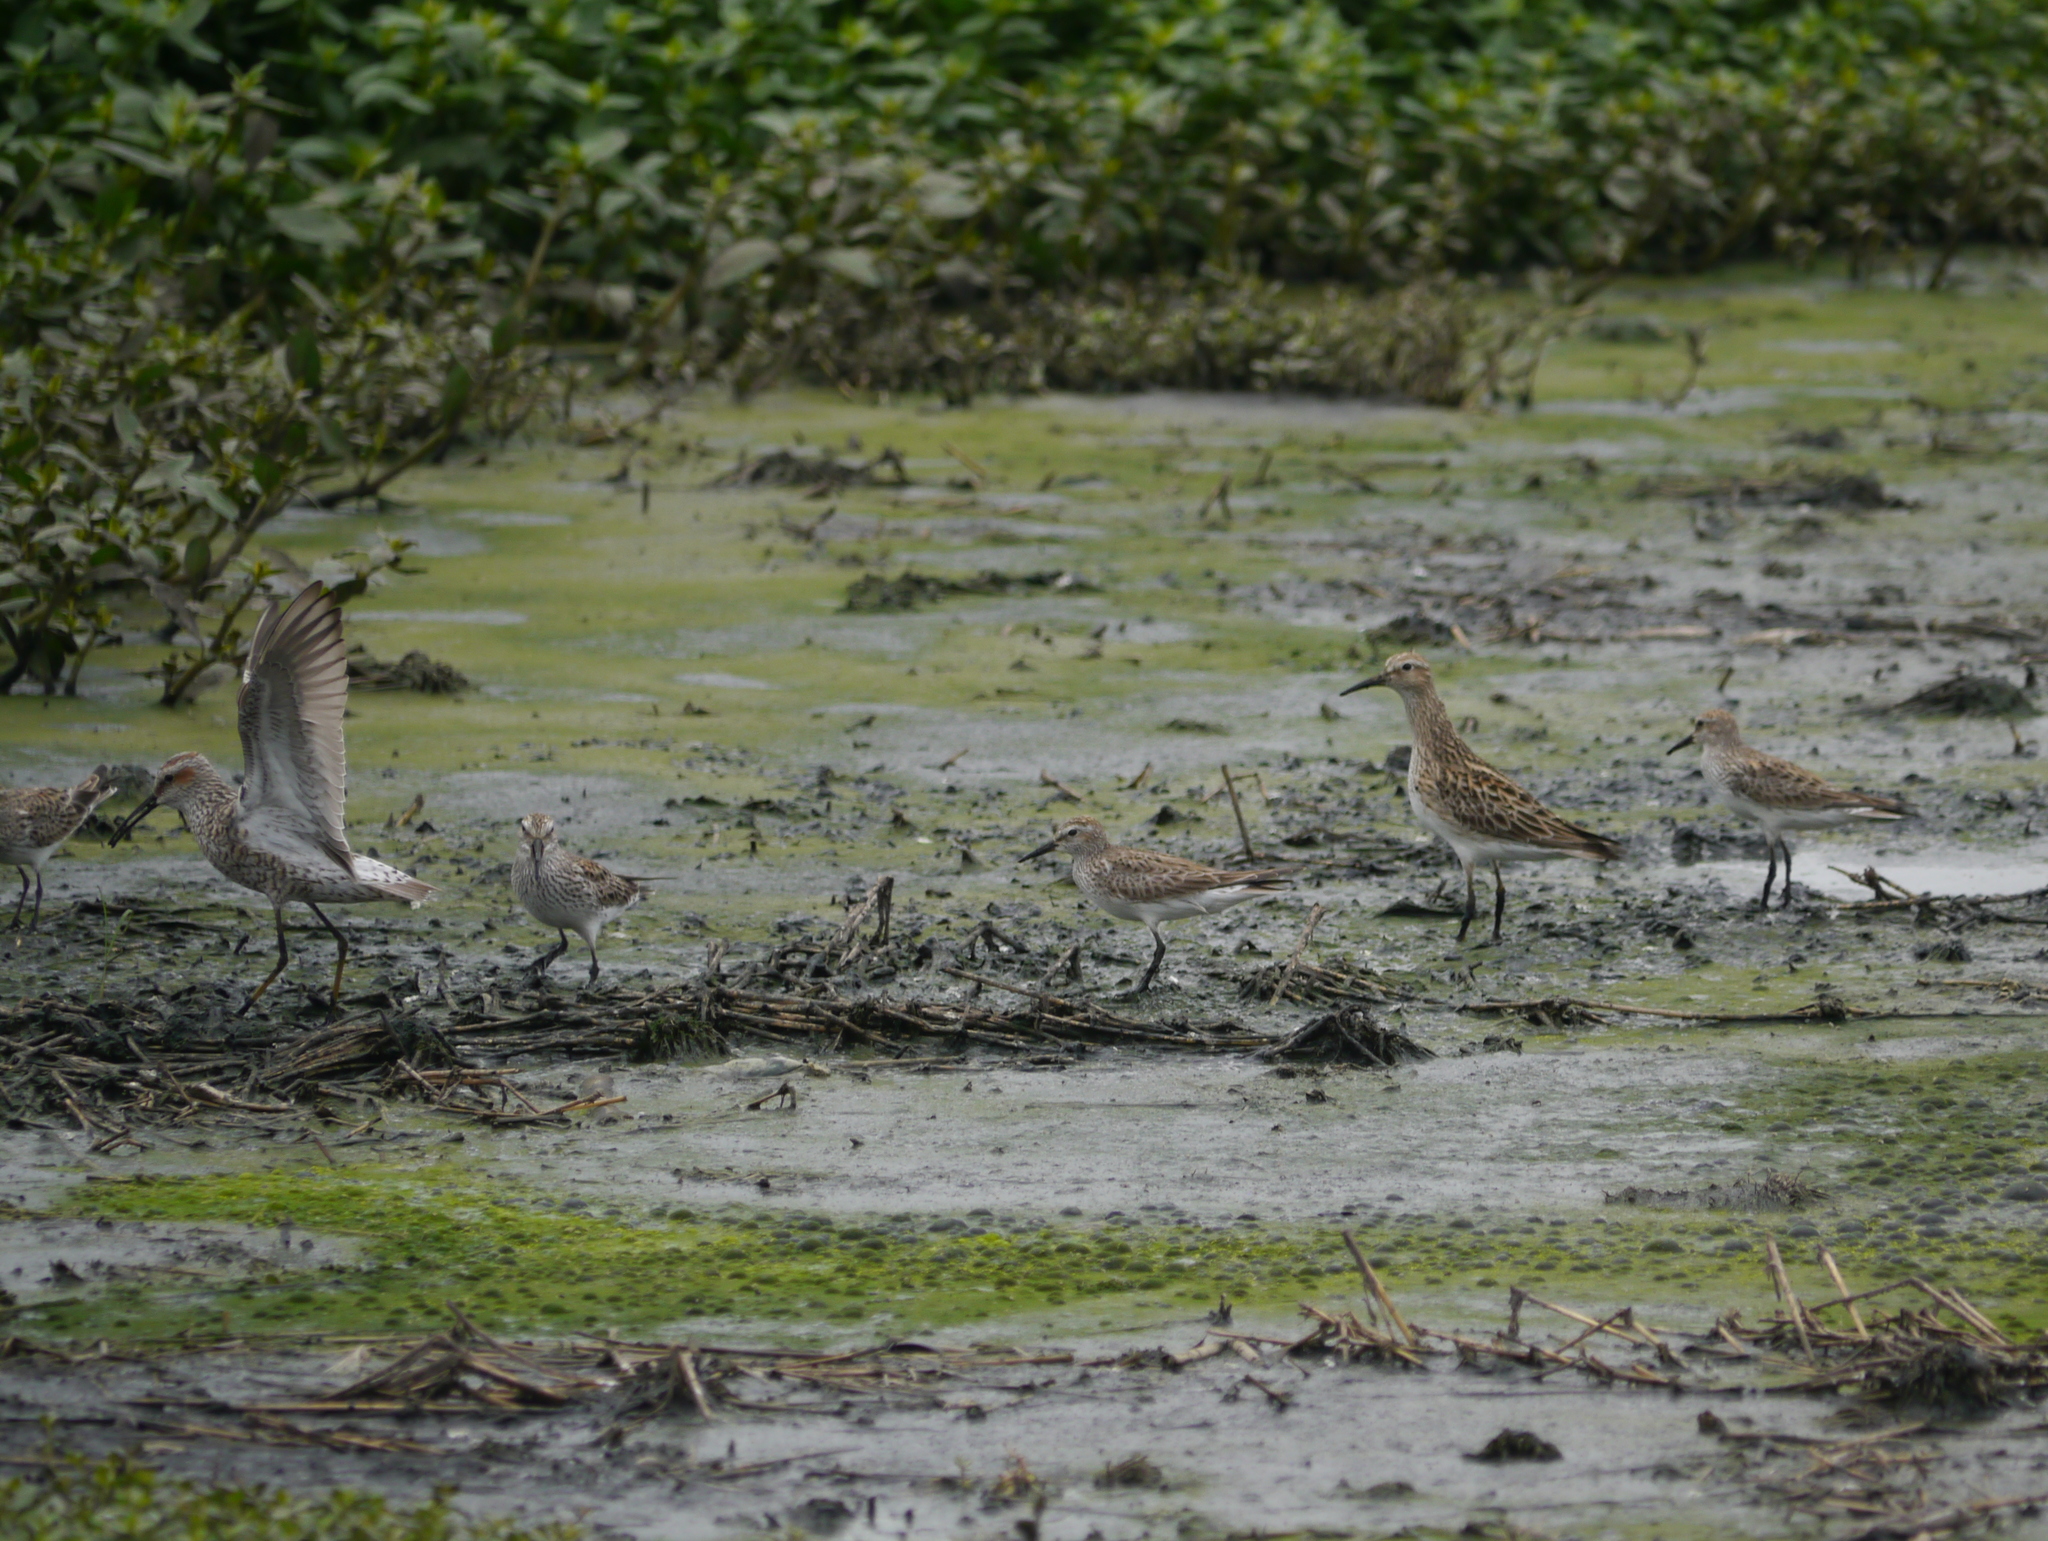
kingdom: Animalia
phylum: Chordata
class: Aves
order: Charadriiformes
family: Scolopacidae
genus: Calidris
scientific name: Calidris himantopus
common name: Stilt sandpiper
